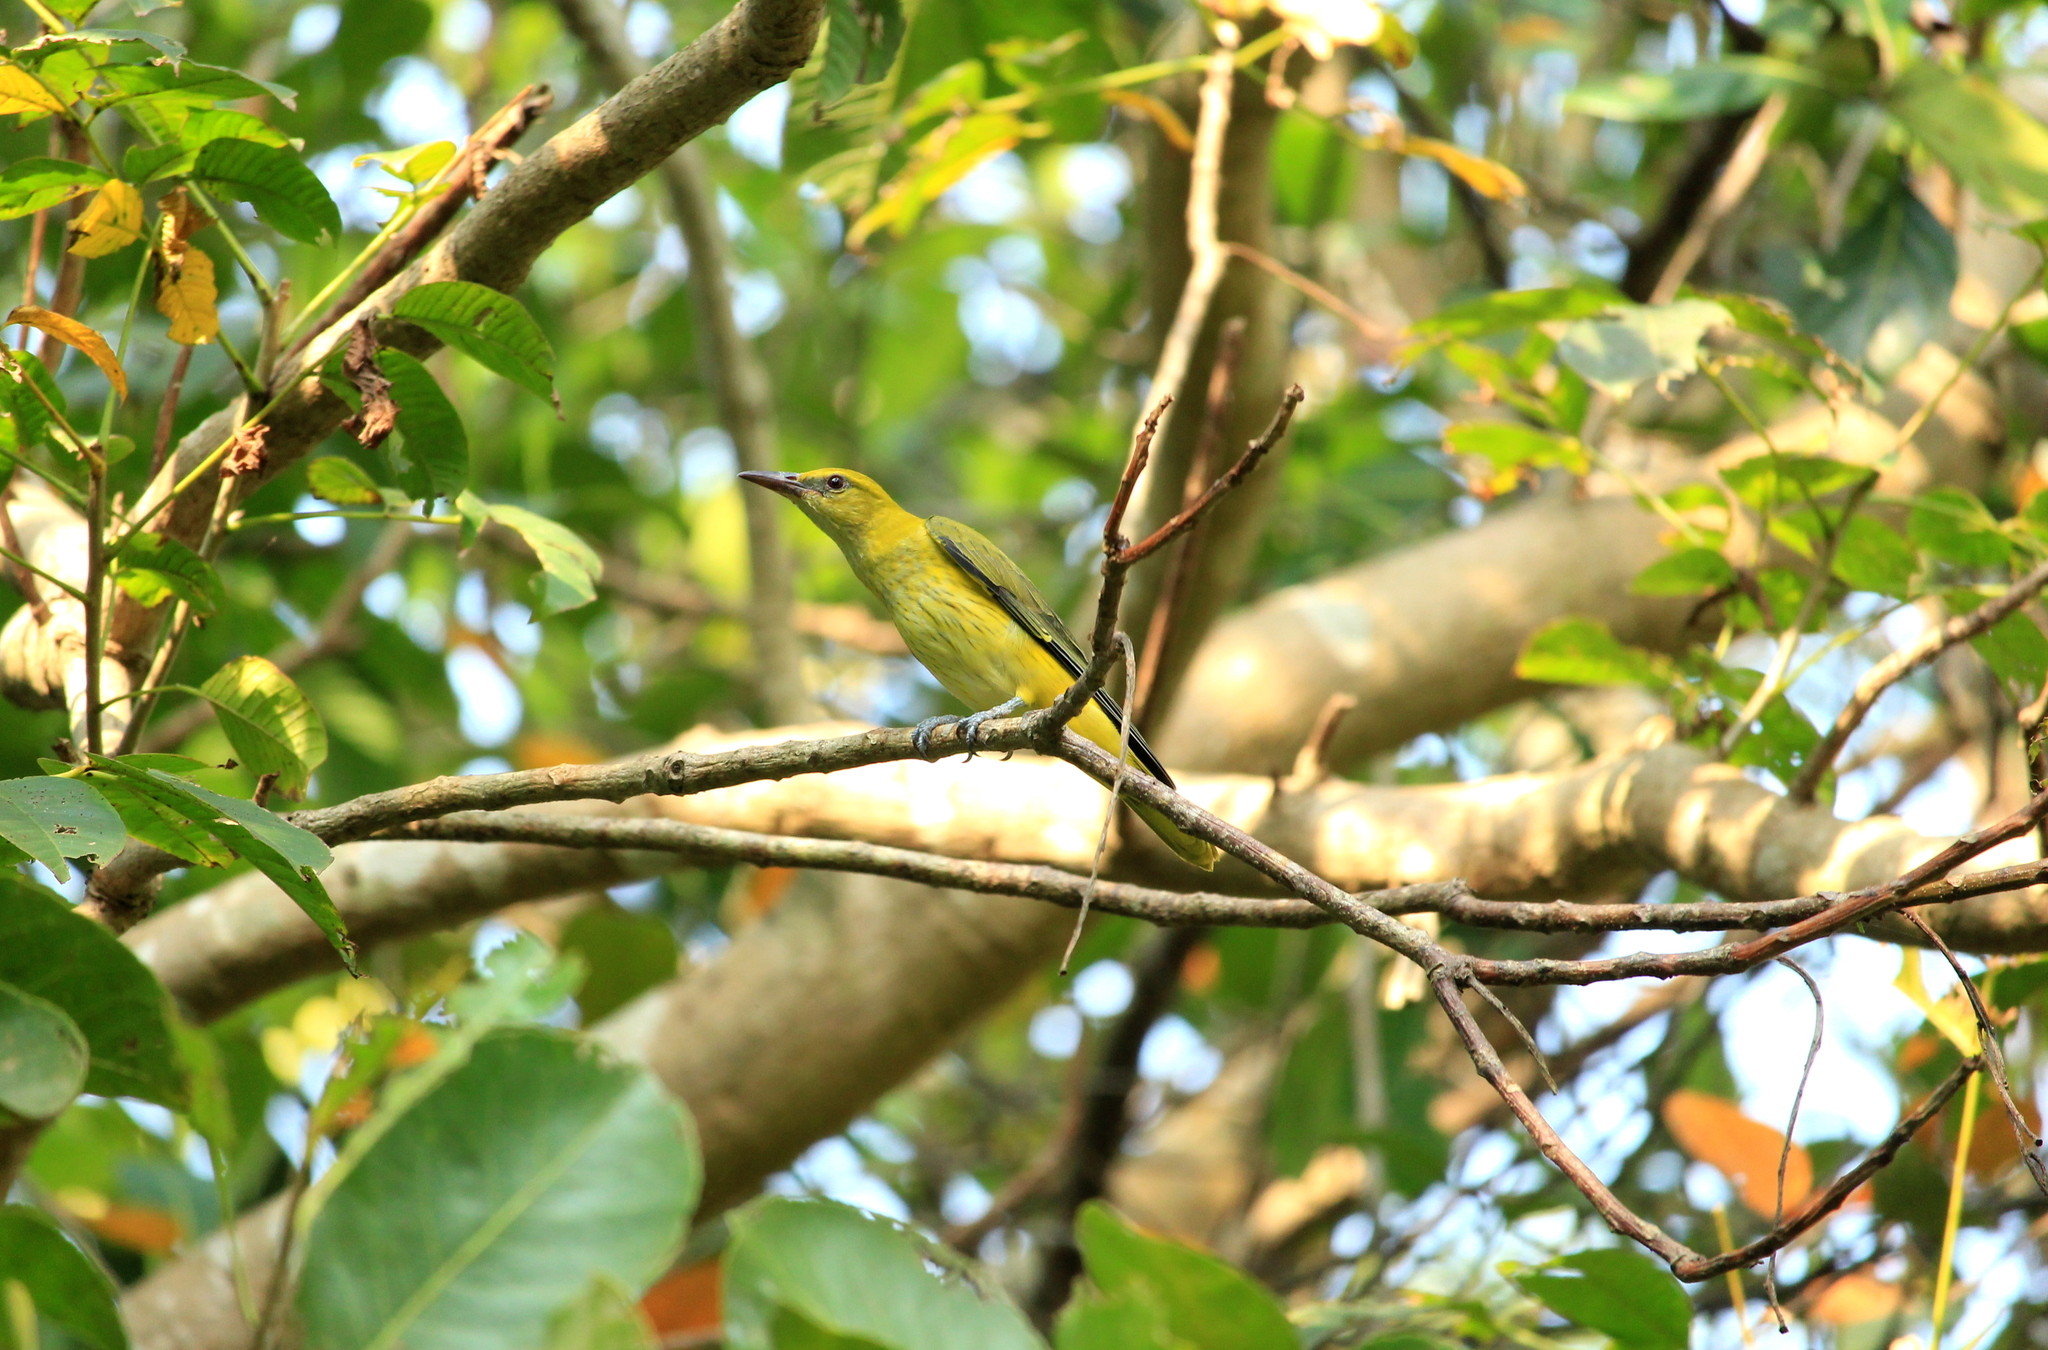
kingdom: Animalia
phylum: Chordata
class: Aves
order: Passeriformes
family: Oriolidae
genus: Oriolus
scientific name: Oriolus kundoo
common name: Indian golden oriole
